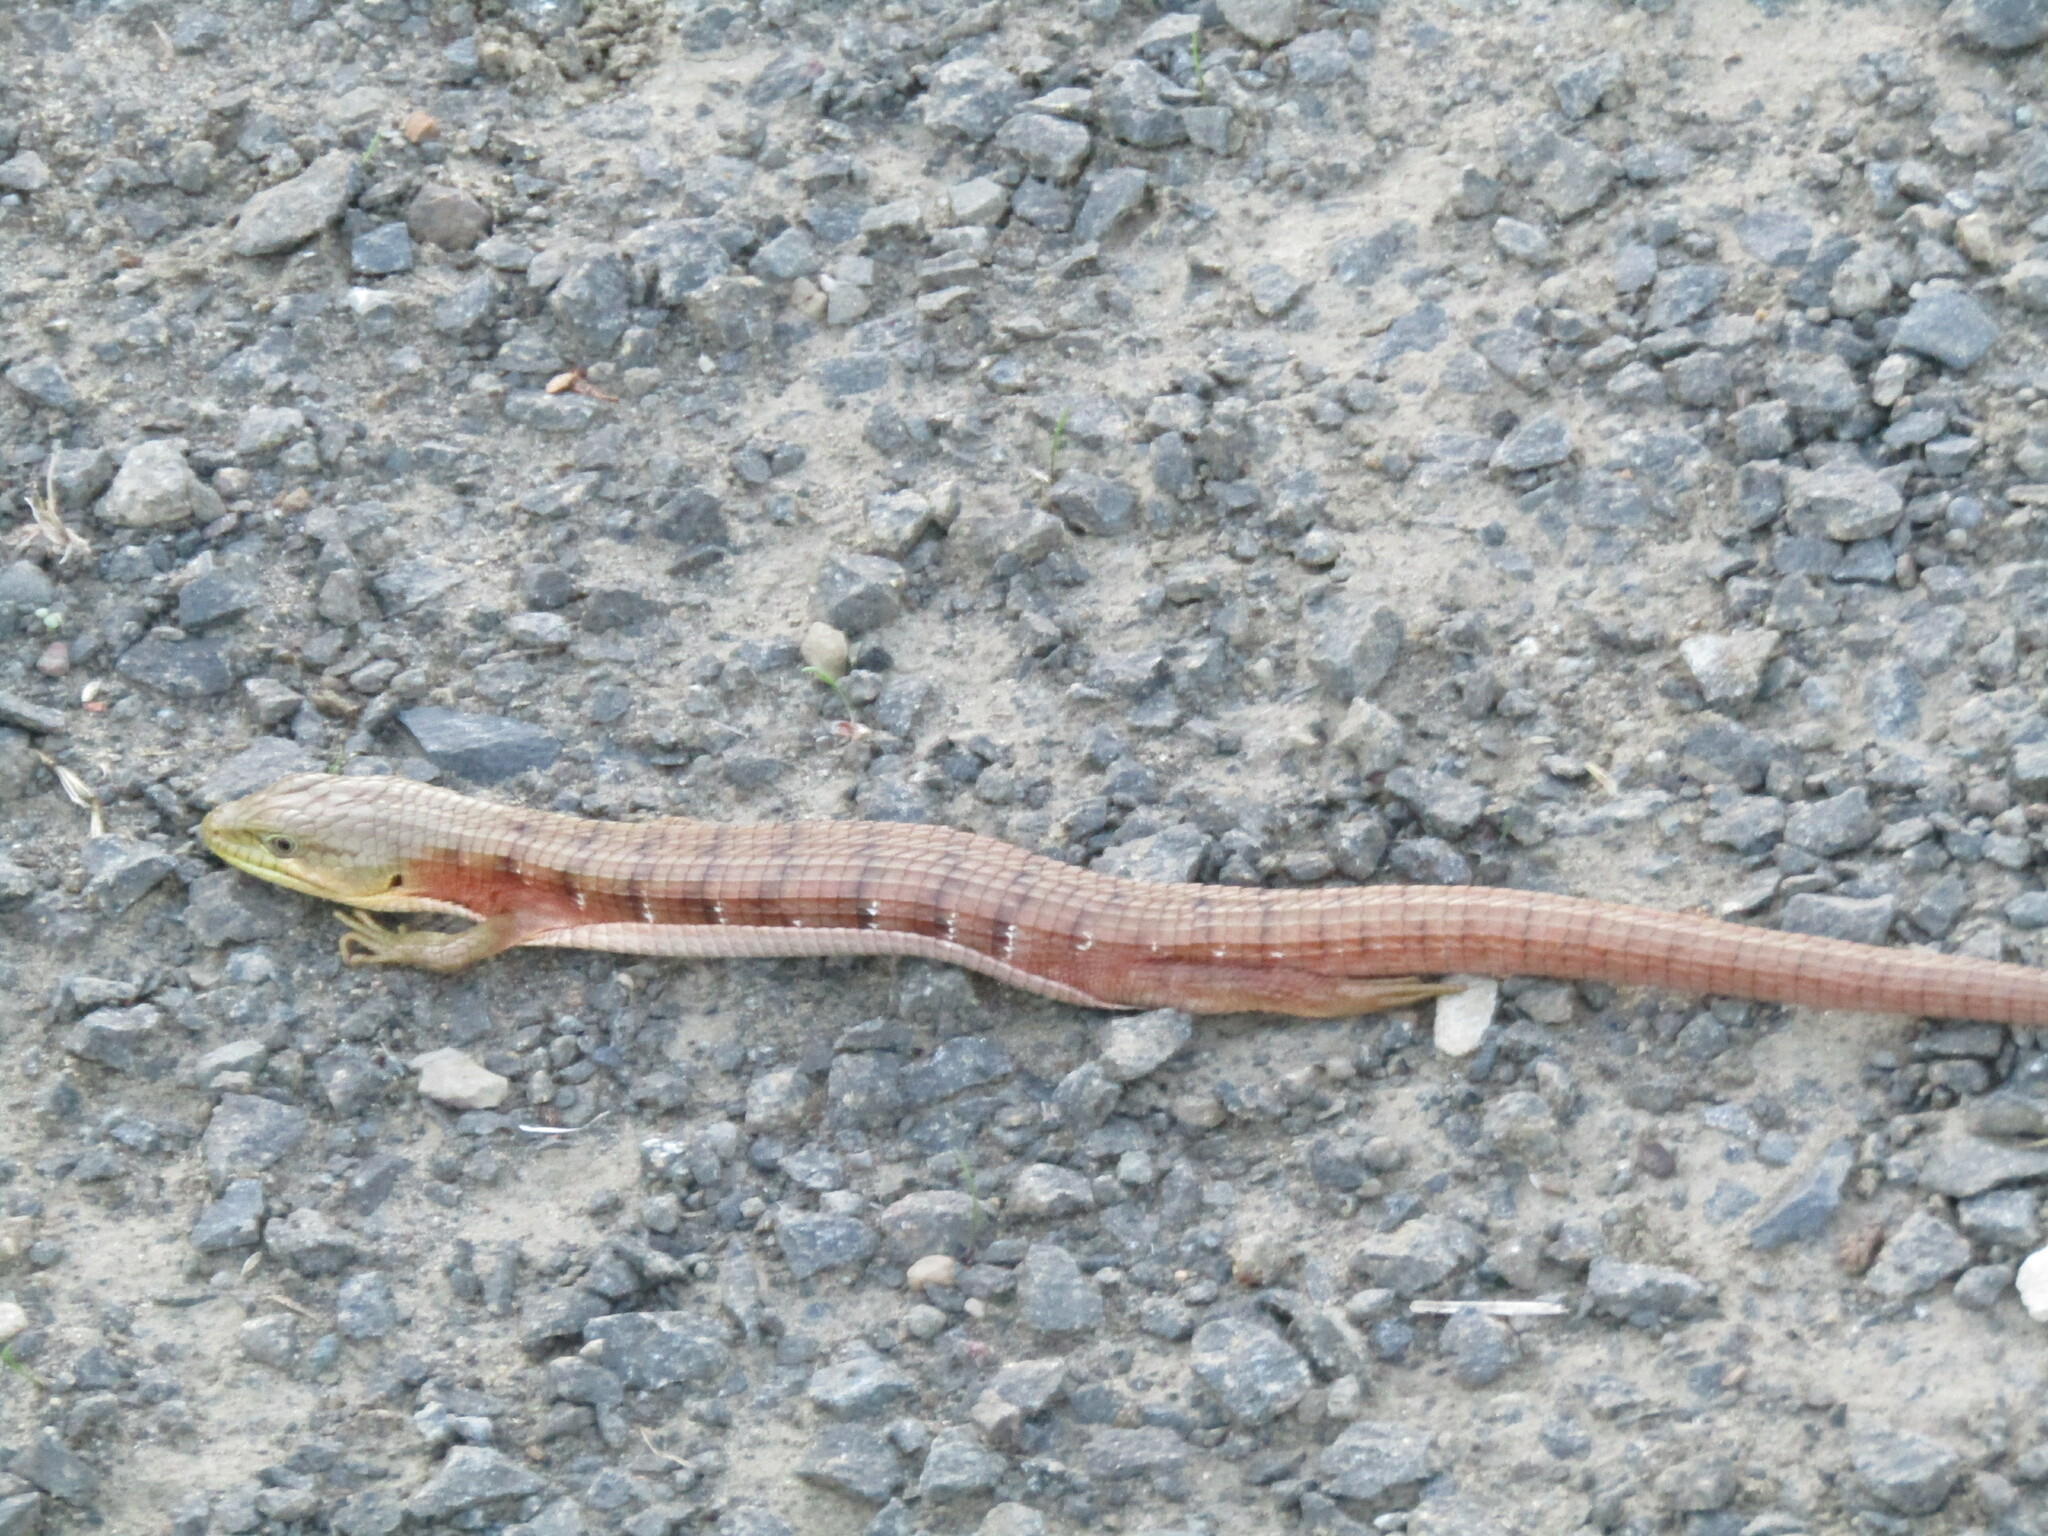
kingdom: Animalia
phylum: Chordata
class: Squamata
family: Anguidae
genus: Elgaria
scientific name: Elgaria multicarinata
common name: Southern alligator lizard
